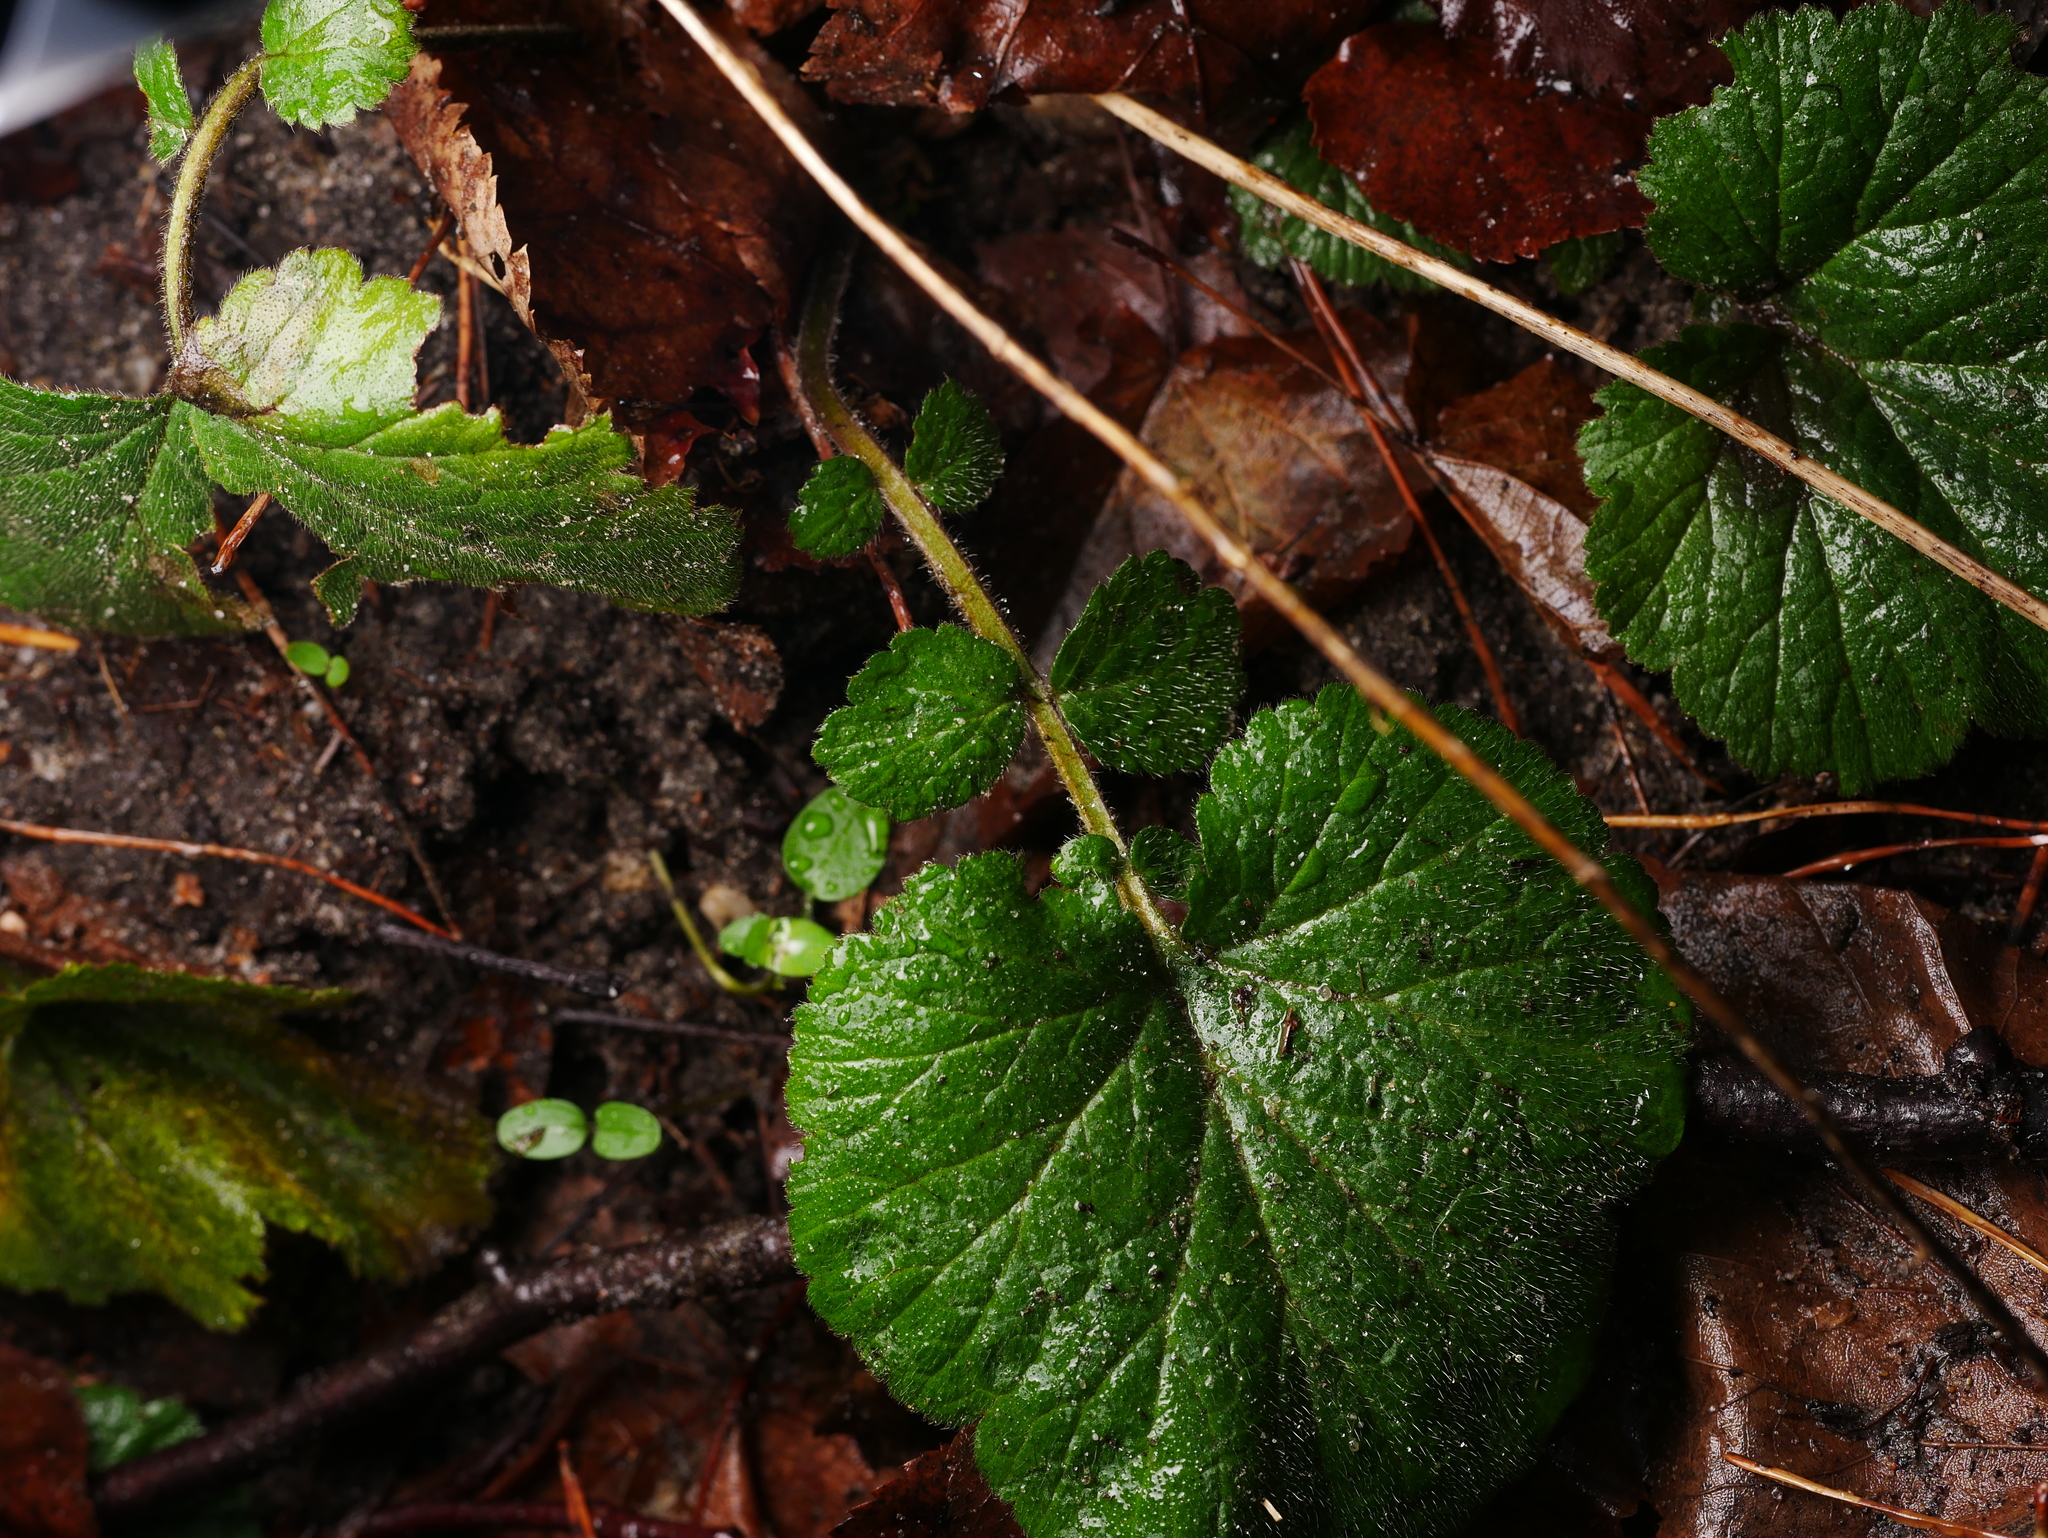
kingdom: Plantae
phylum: Tracheophyta
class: Magnoliopsida
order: Rosales
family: Rosaceae
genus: Geum
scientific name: Geum urbanum
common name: Wood avens
